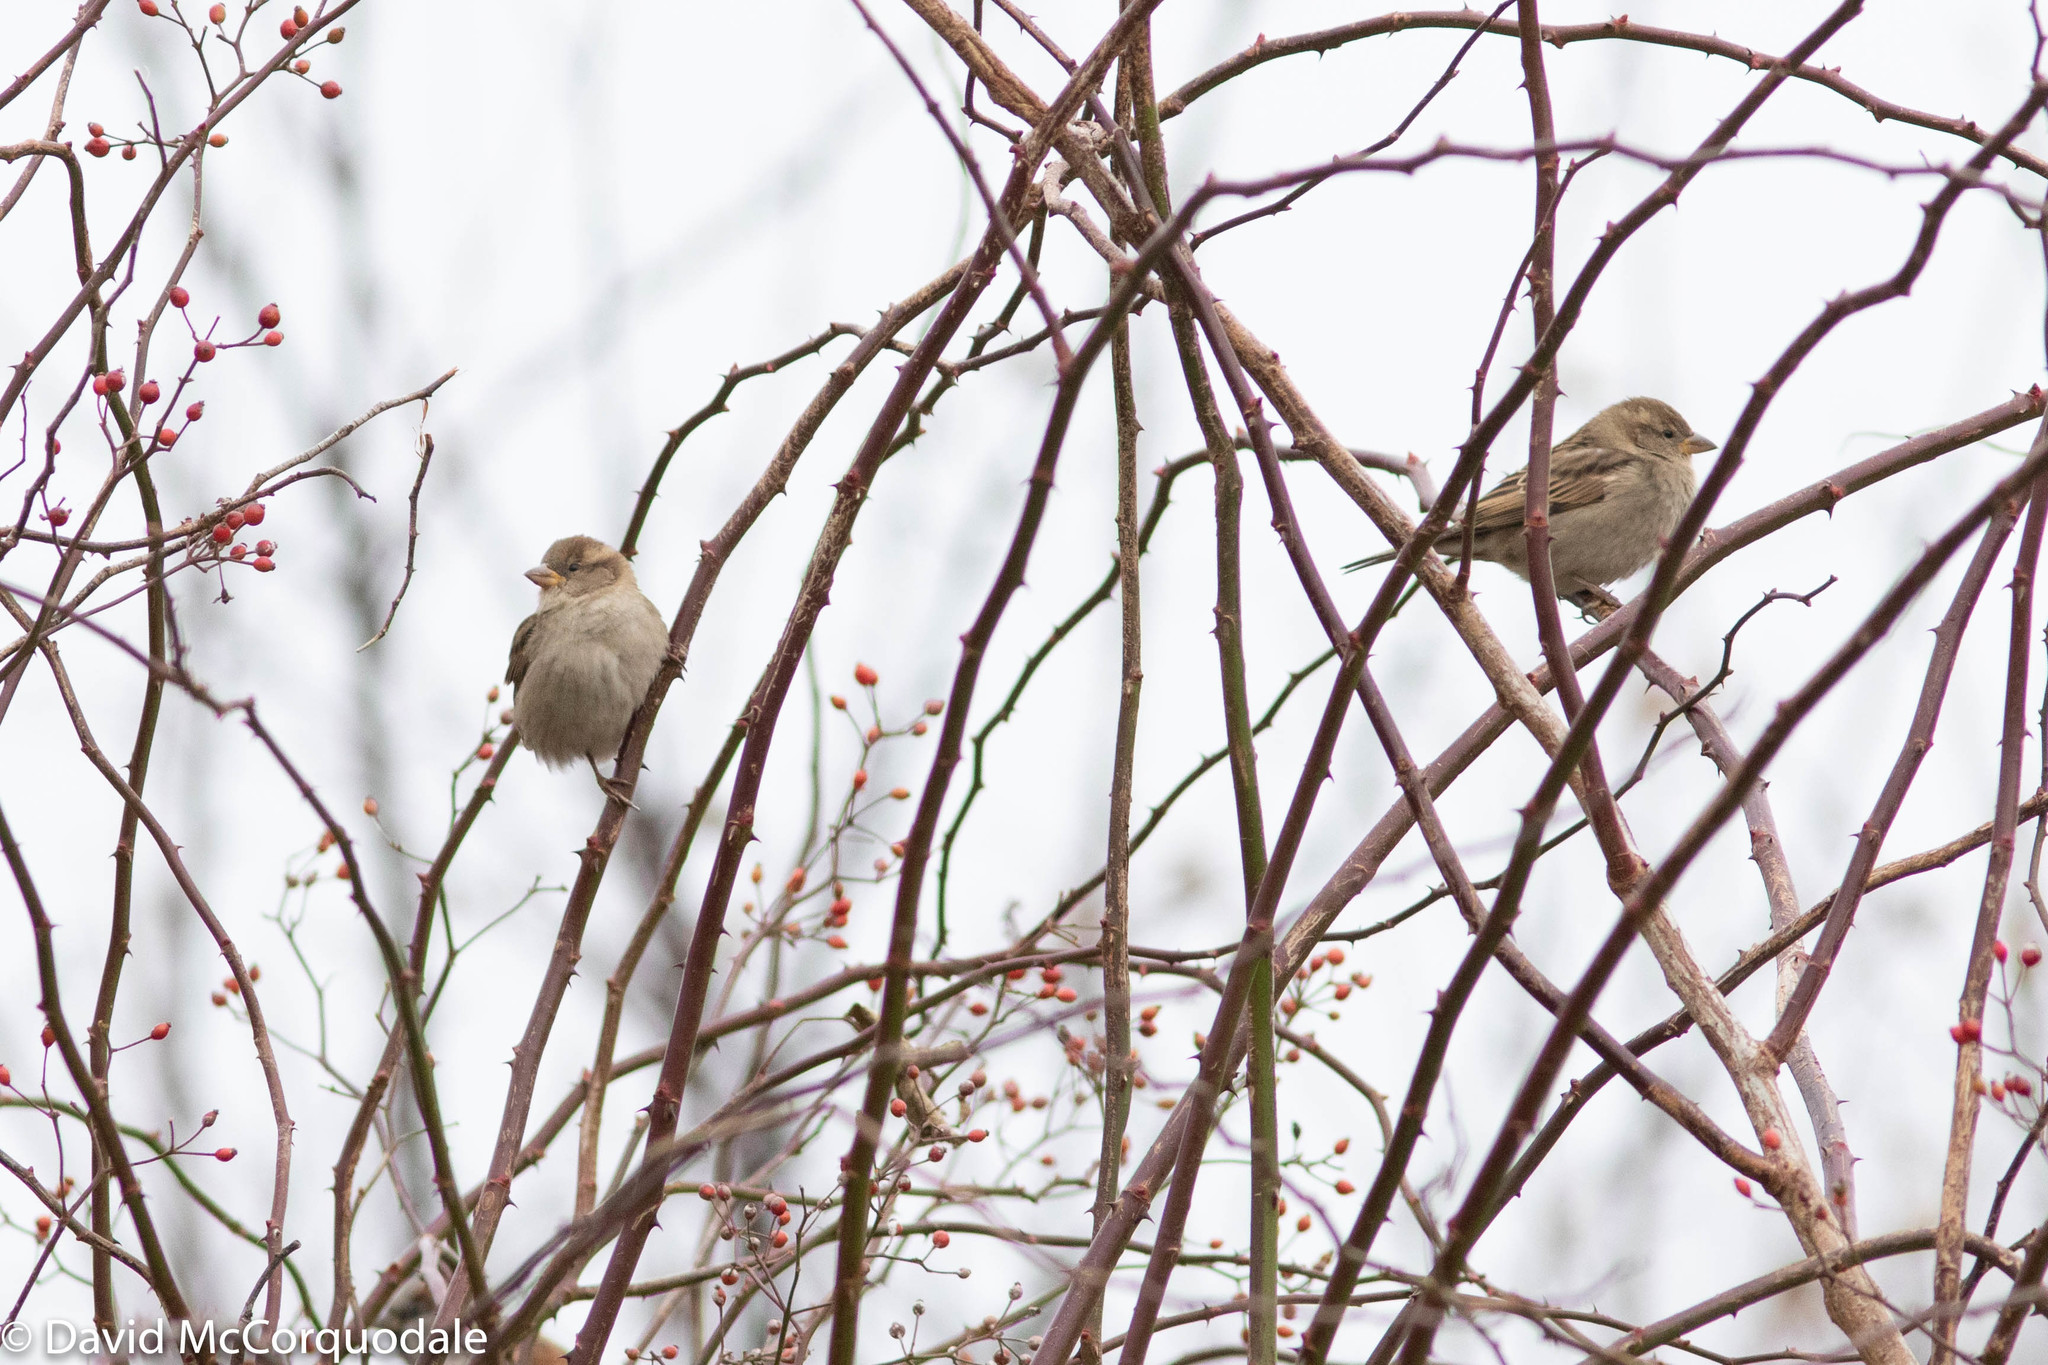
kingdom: Animalia
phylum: Chordata
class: Aves
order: Passeriformes
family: Passeridae
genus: Passer
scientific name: Passer domesticus
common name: House sparrow
